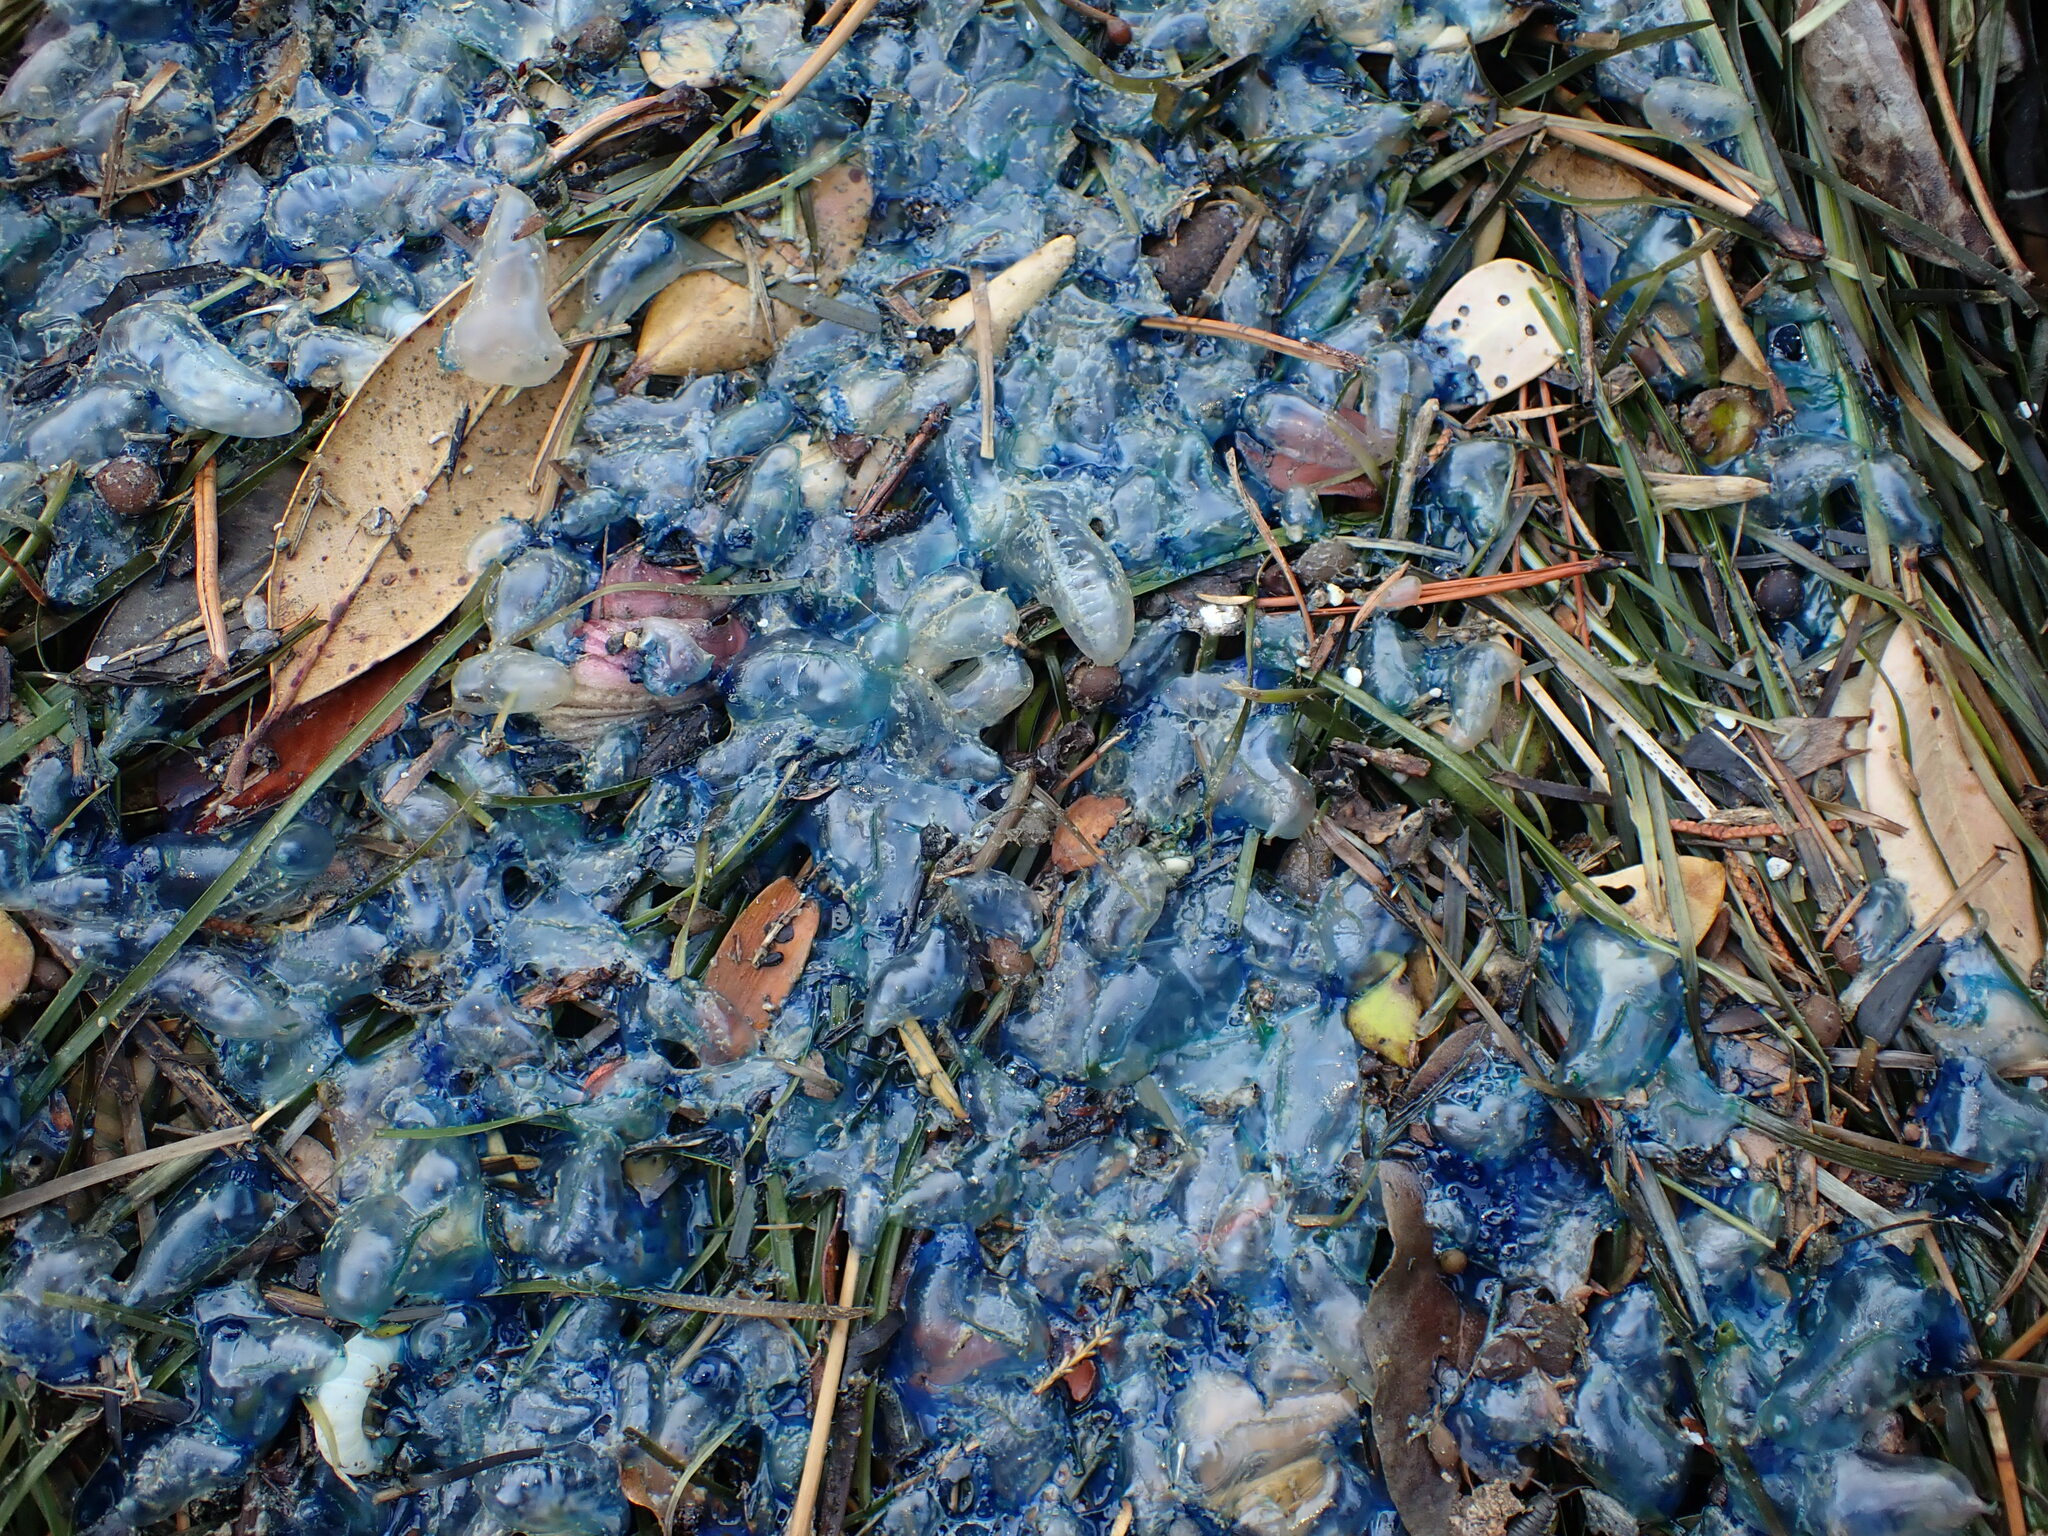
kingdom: Animalia
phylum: Cnidaria
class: Hydrozoa
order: Siphonophorae
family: Physaliidae
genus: Physalia
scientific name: Physalia physalis
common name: Portuguese man-of-war
